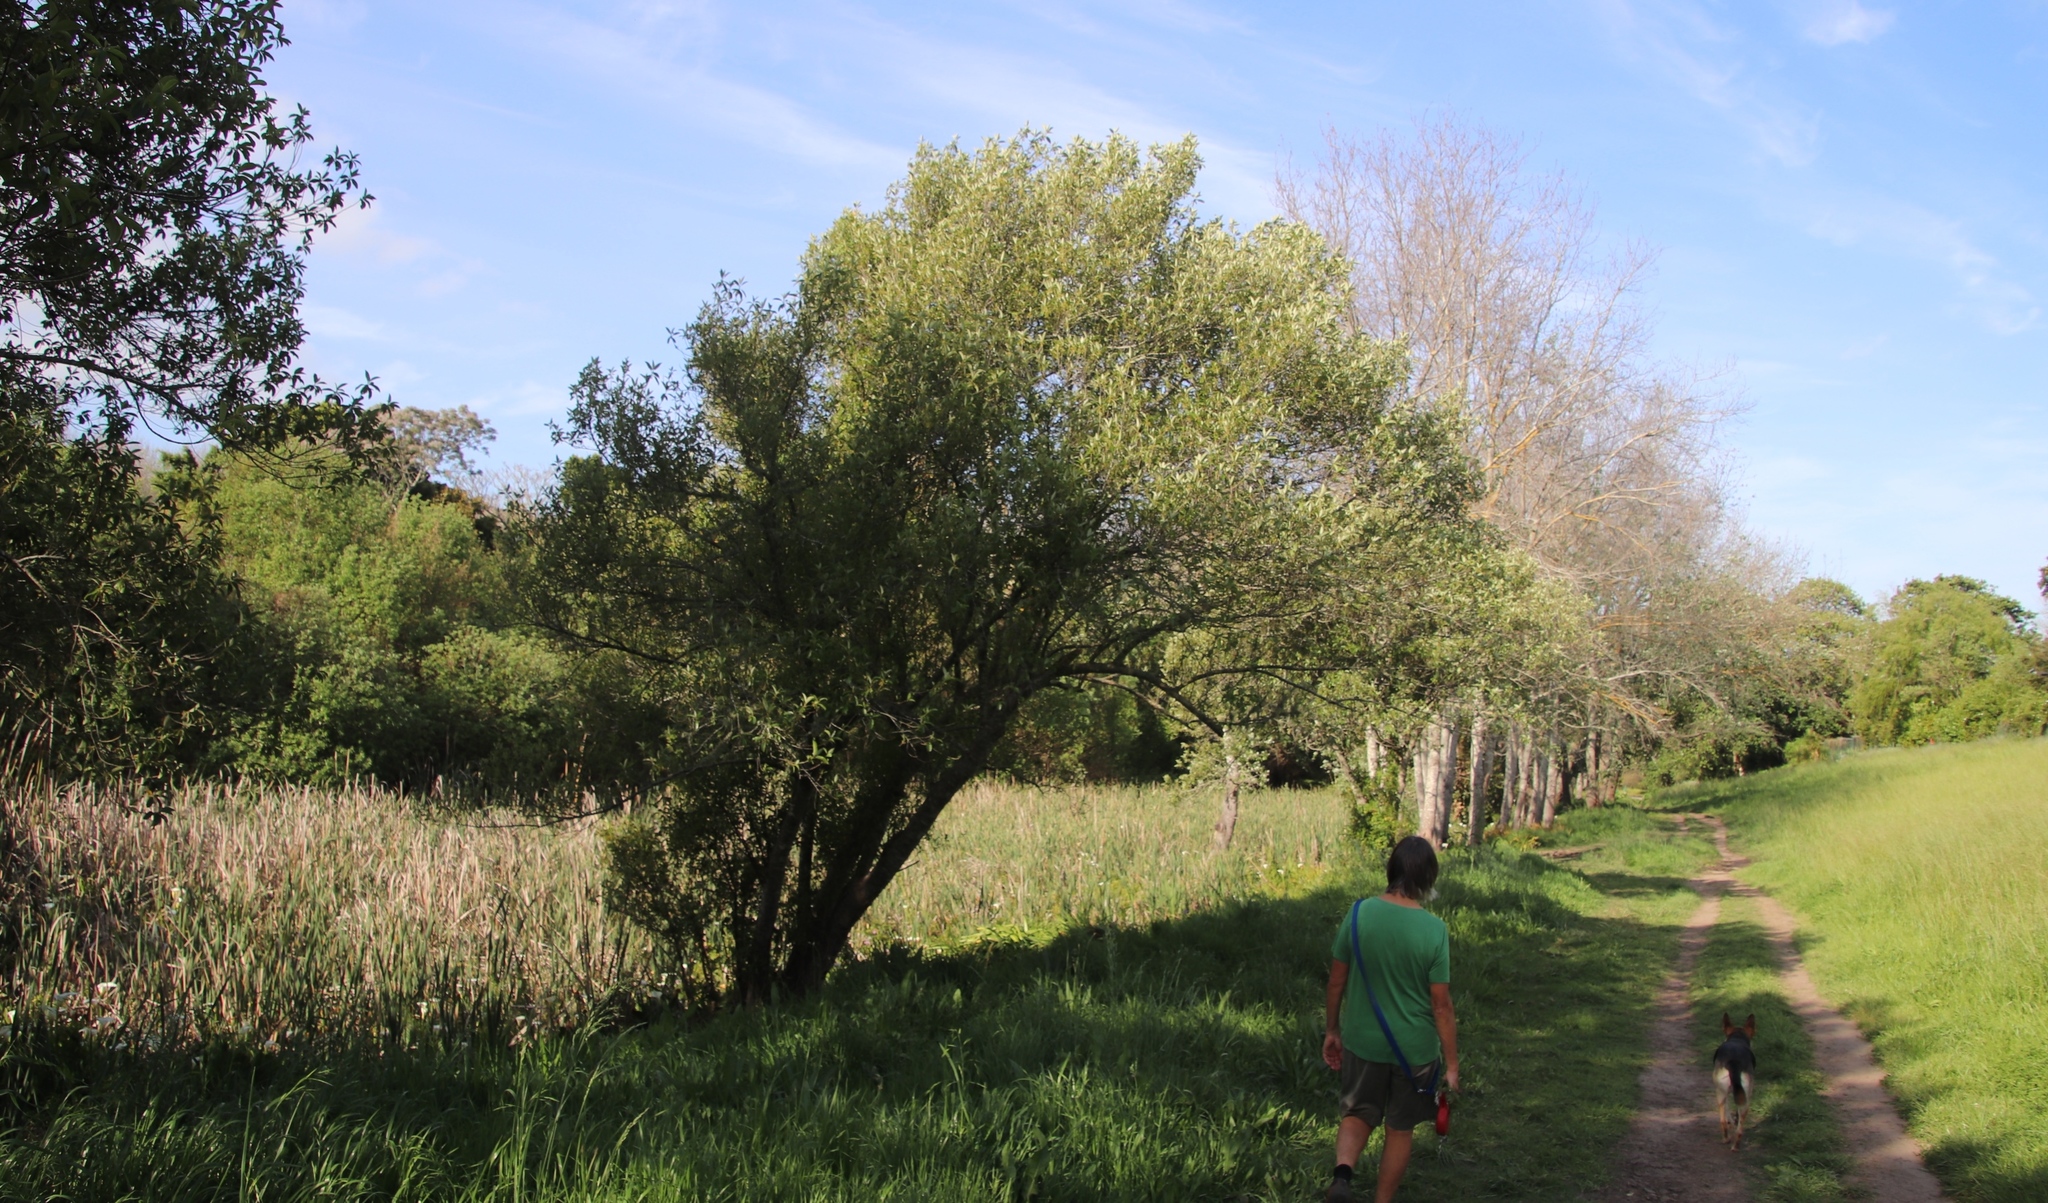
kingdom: Plantae
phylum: Tracheophyta
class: Magnoliopsida
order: Malpighiales
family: Achariaceae
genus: Kiggelaria
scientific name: Kiggelaria africana
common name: Wild peach
